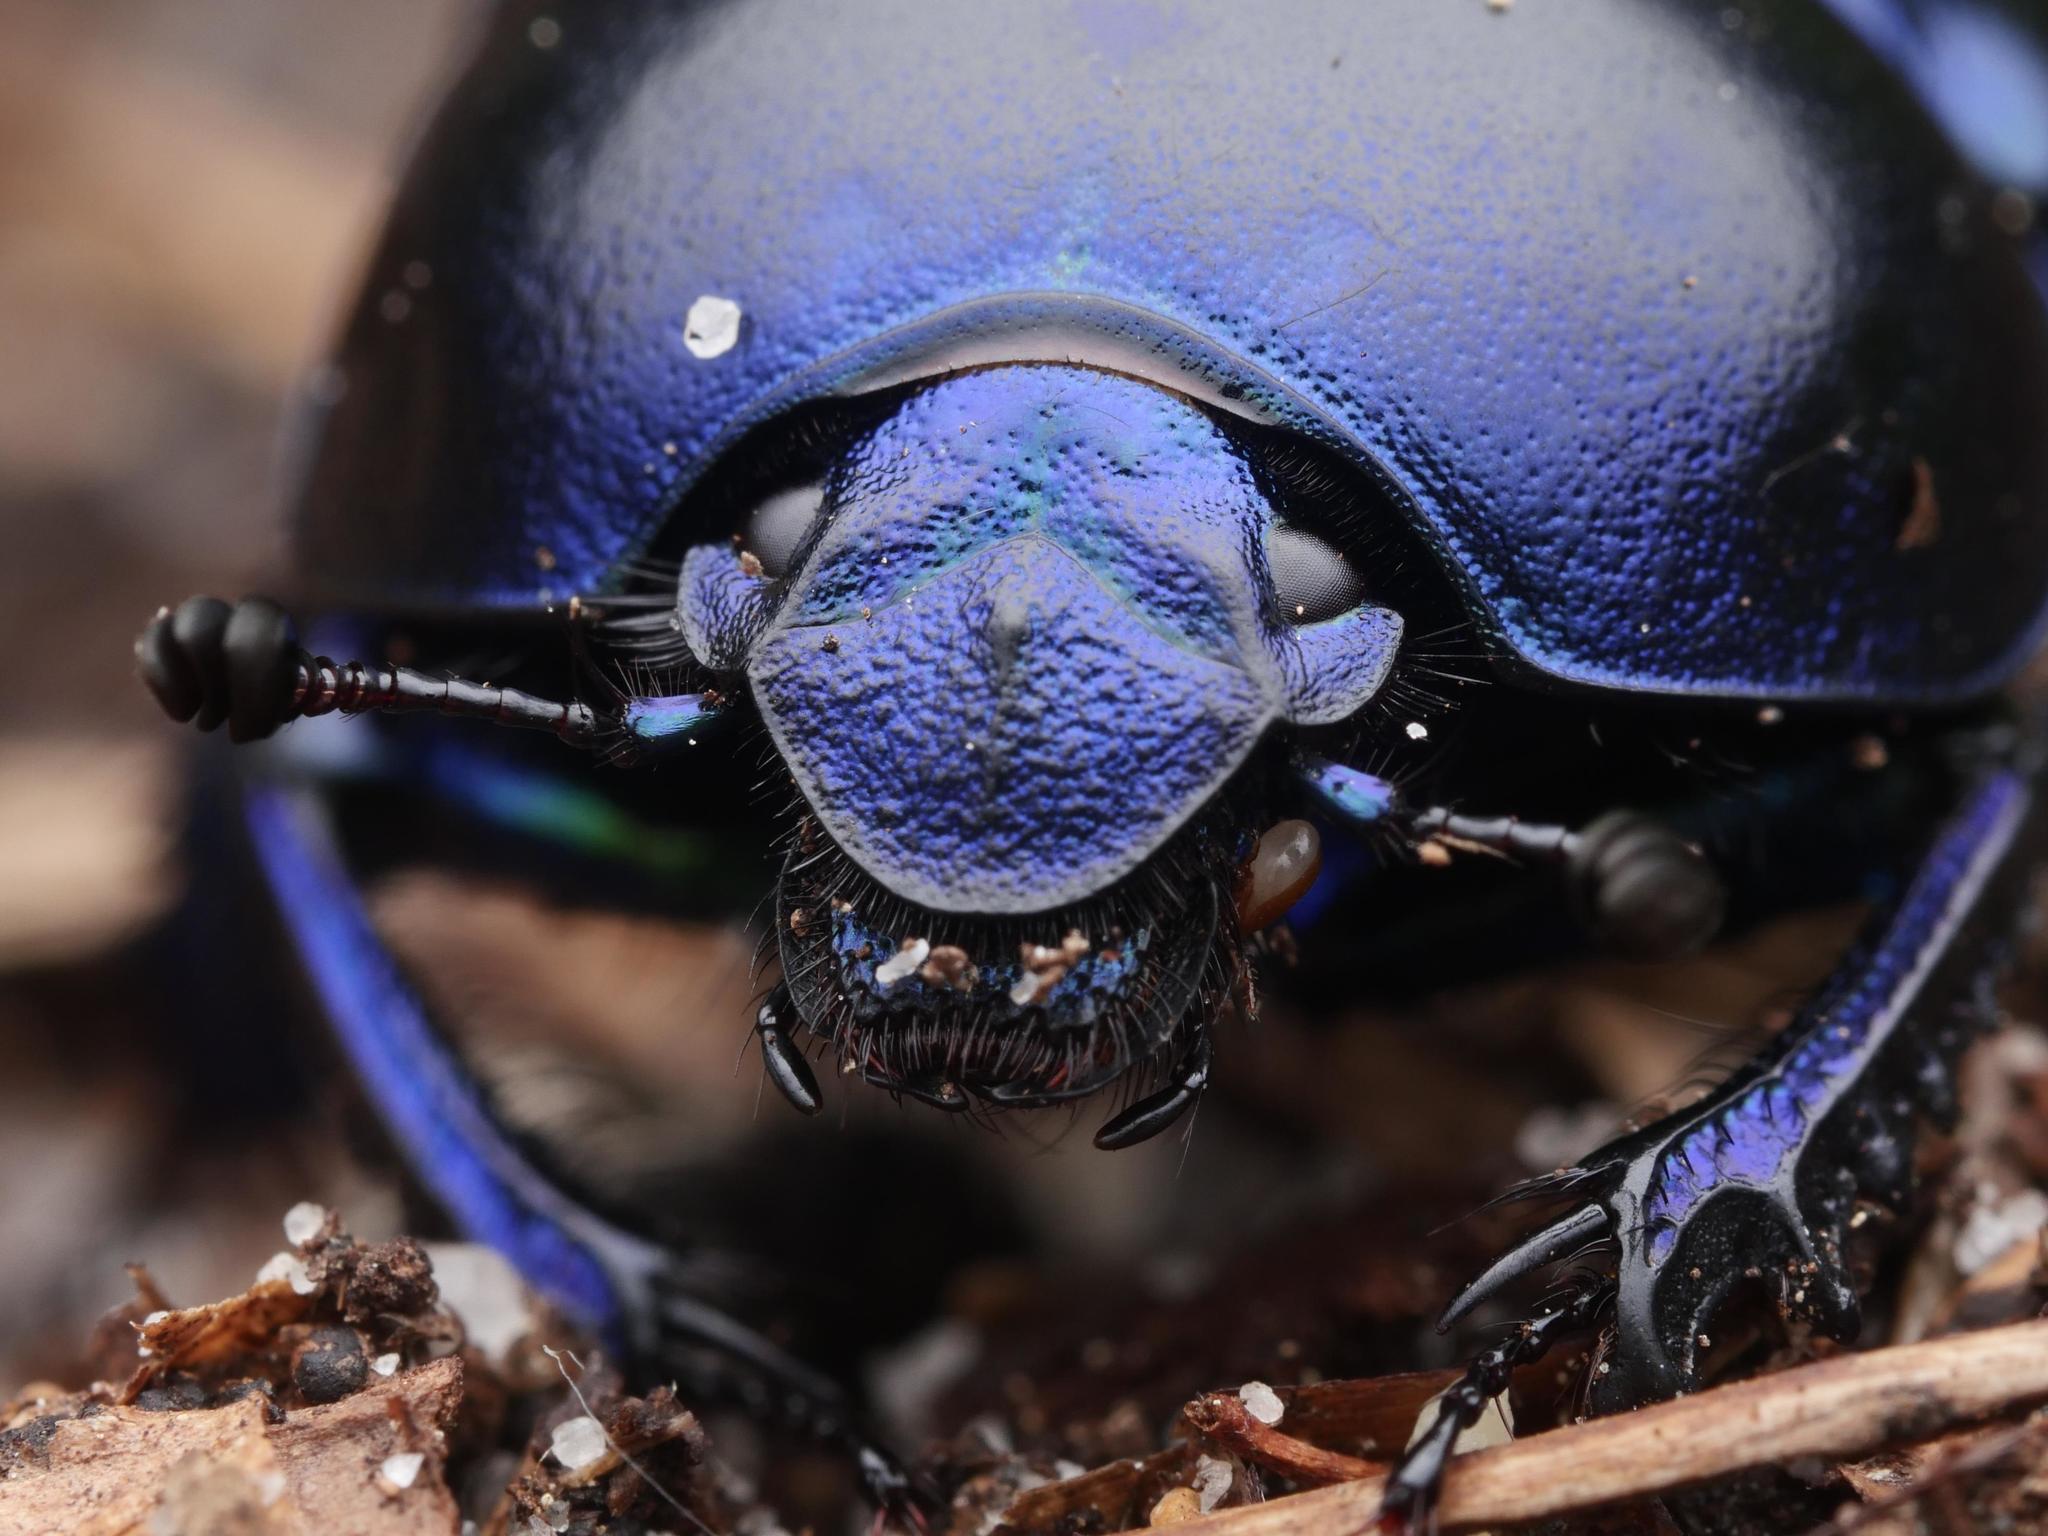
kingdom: Animalia
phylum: Arthropoda
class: Insecta
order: Coleoptera
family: Geotrupidae
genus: Trypocopris
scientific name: Trypocopris vernalis
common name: Spring dumbledor
